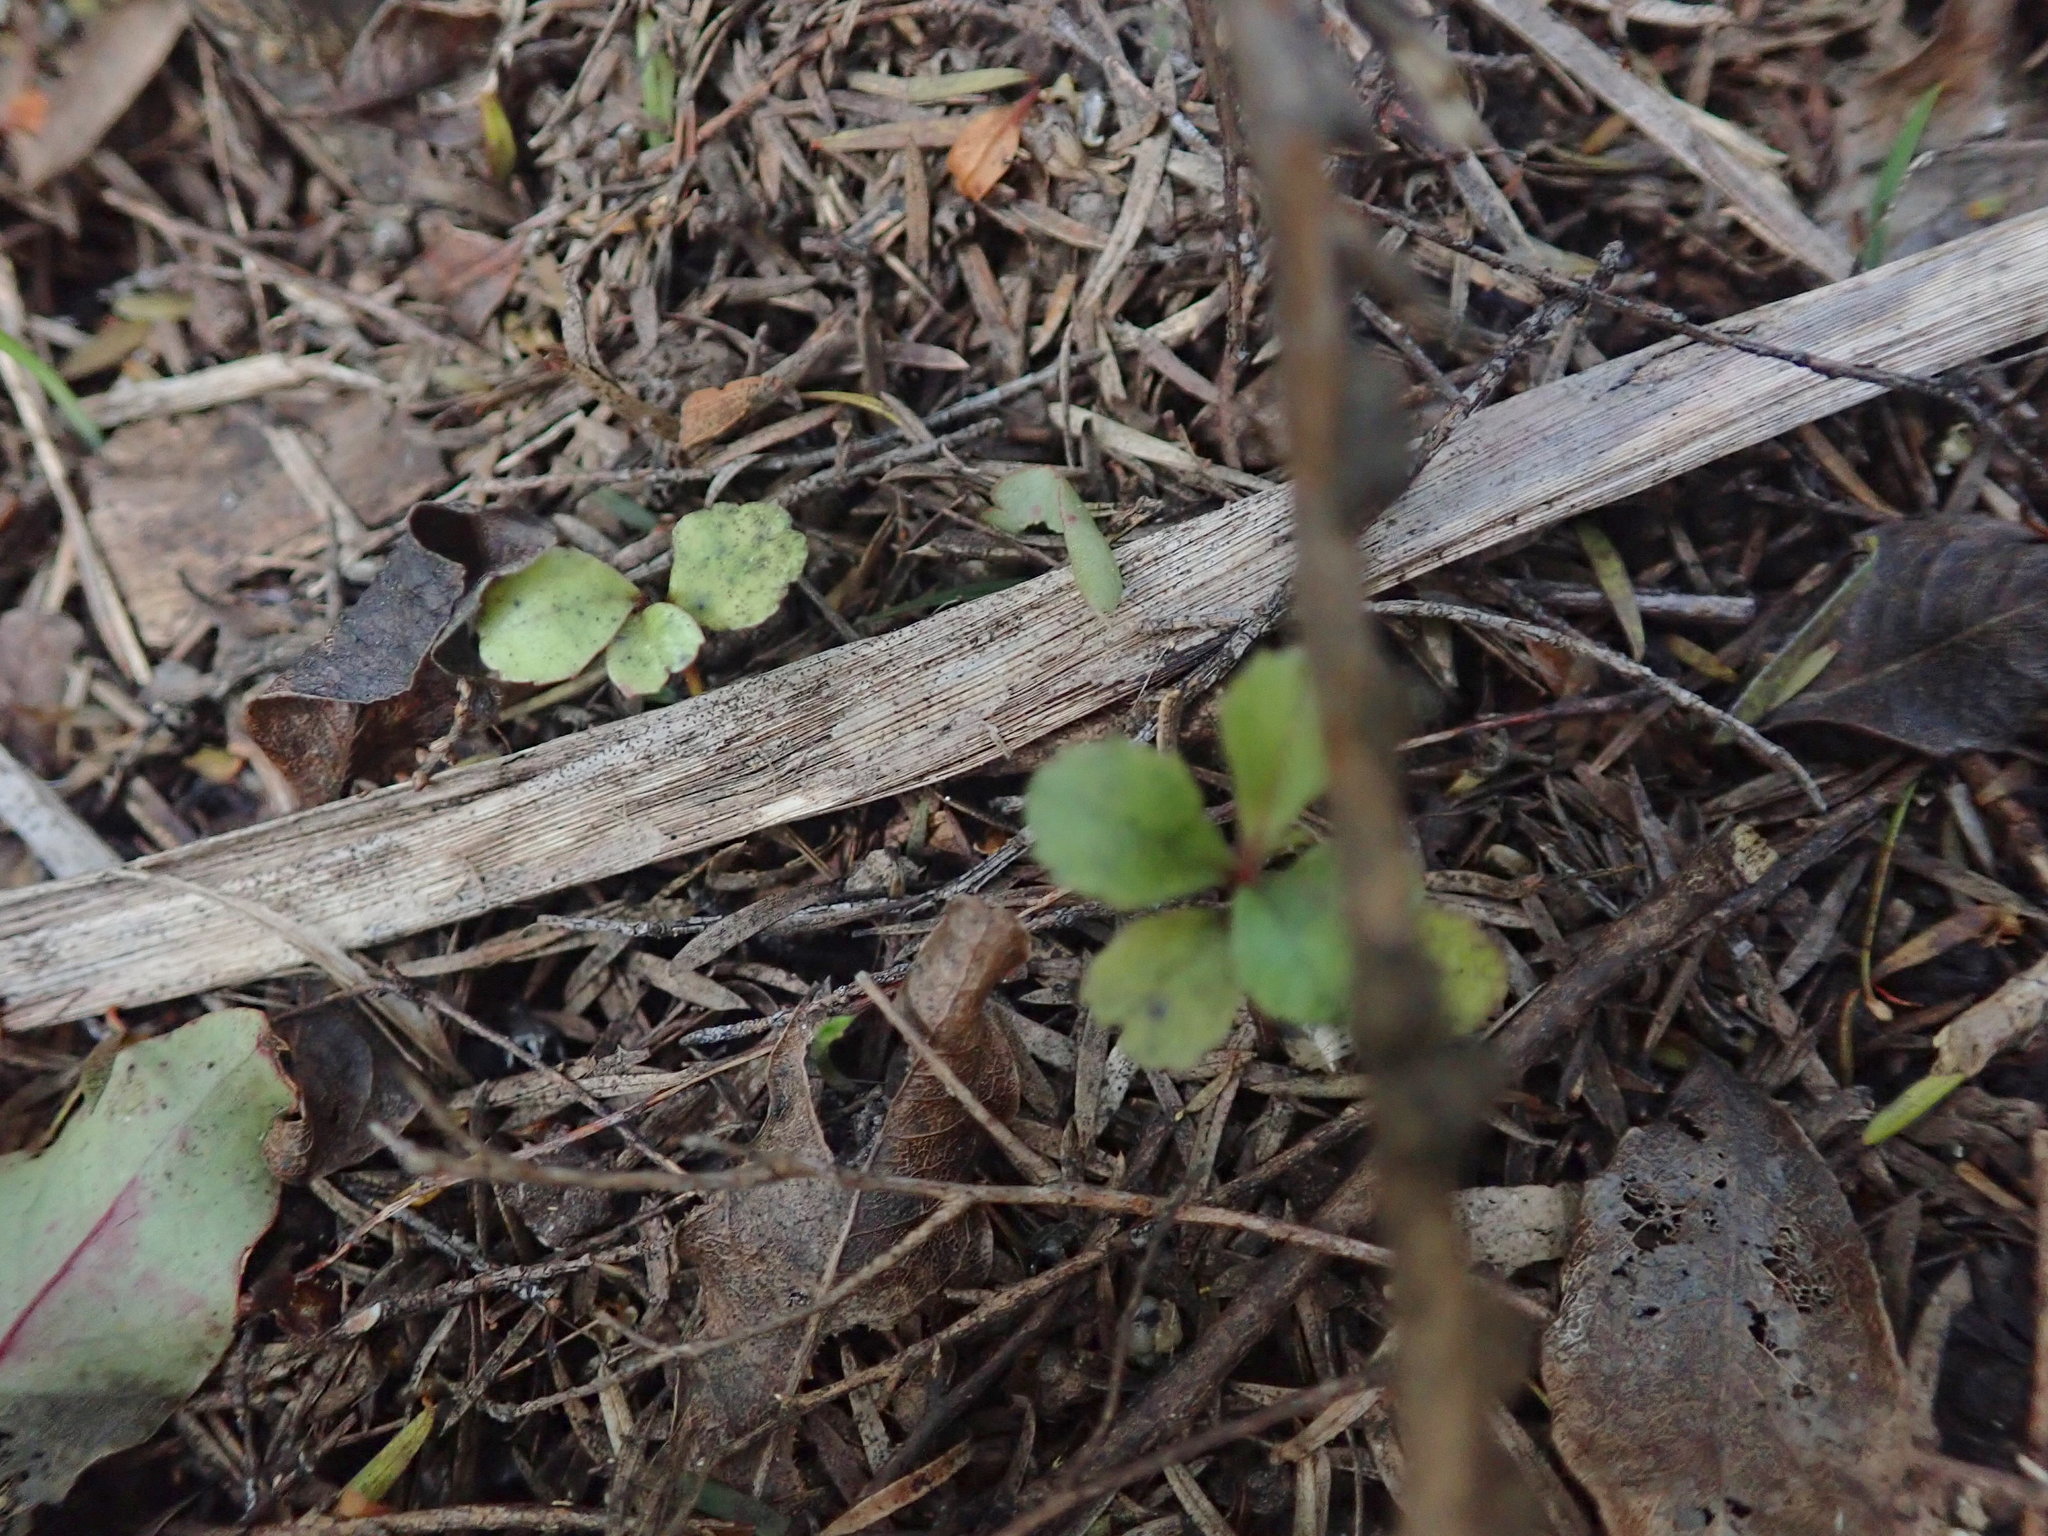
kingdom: Plantae
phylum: Tracheophyta
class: Magnoliopsida
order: Ericales
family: Primulaceae
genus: Myrsine
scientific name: Myrsine australis
